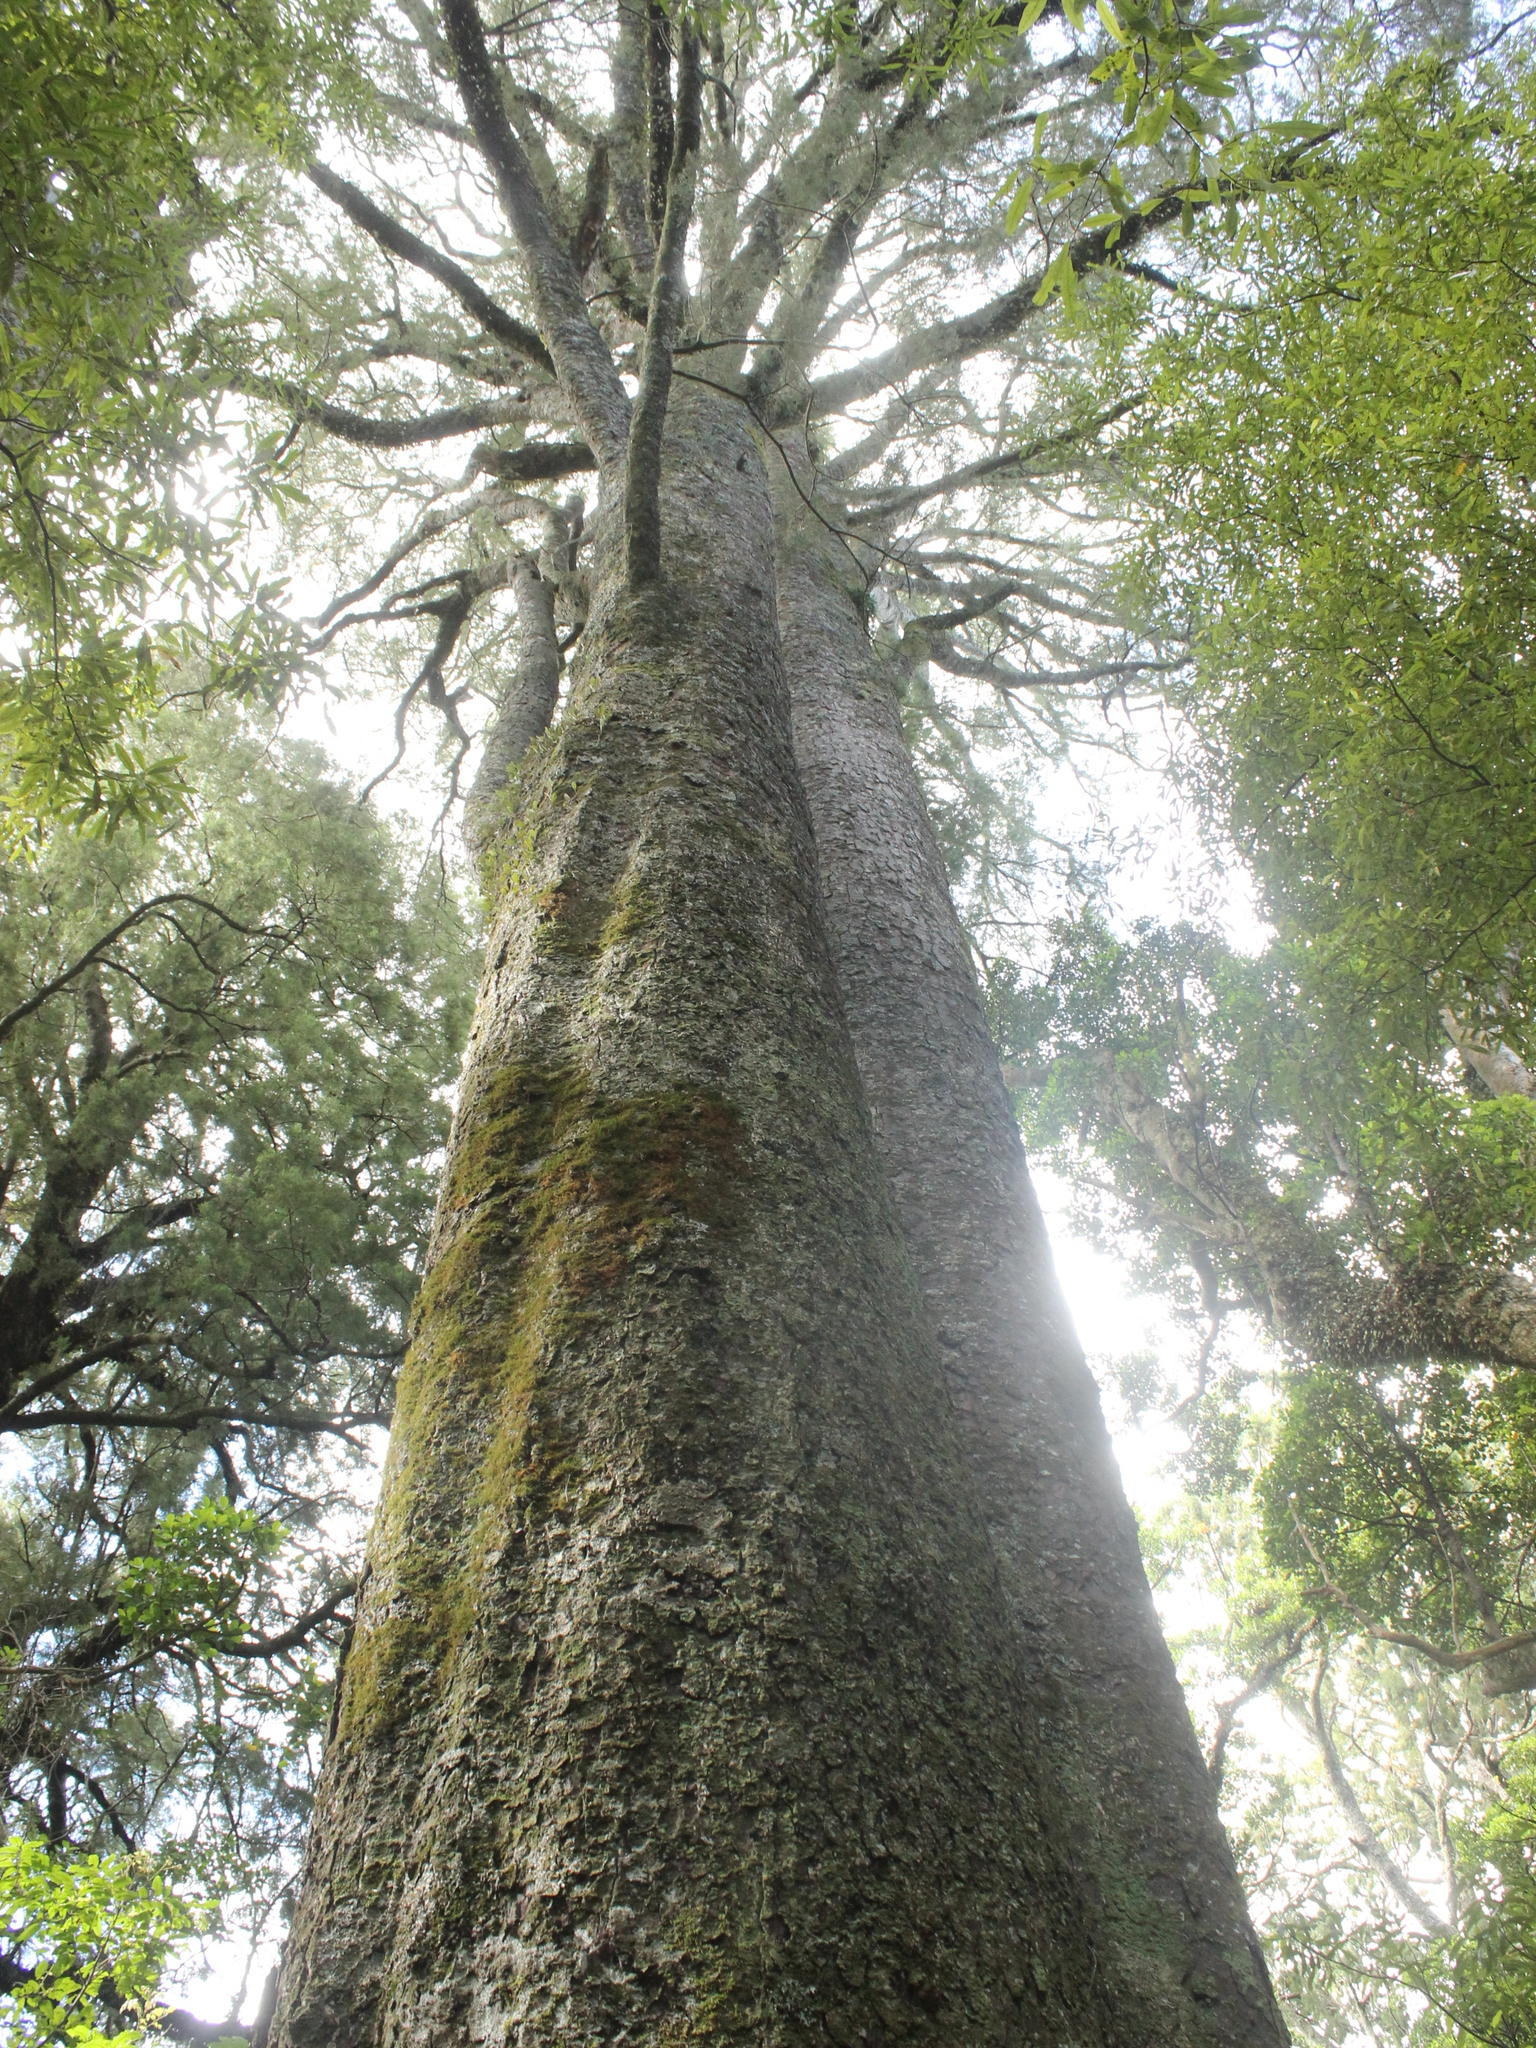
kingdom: Plantae
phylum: Tracheophyta
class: Pinopsida
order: Pinales
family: Podocarpaceae
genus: Dacrycarpus
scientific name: Dacrycarpus dacrydioides
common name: White pine
